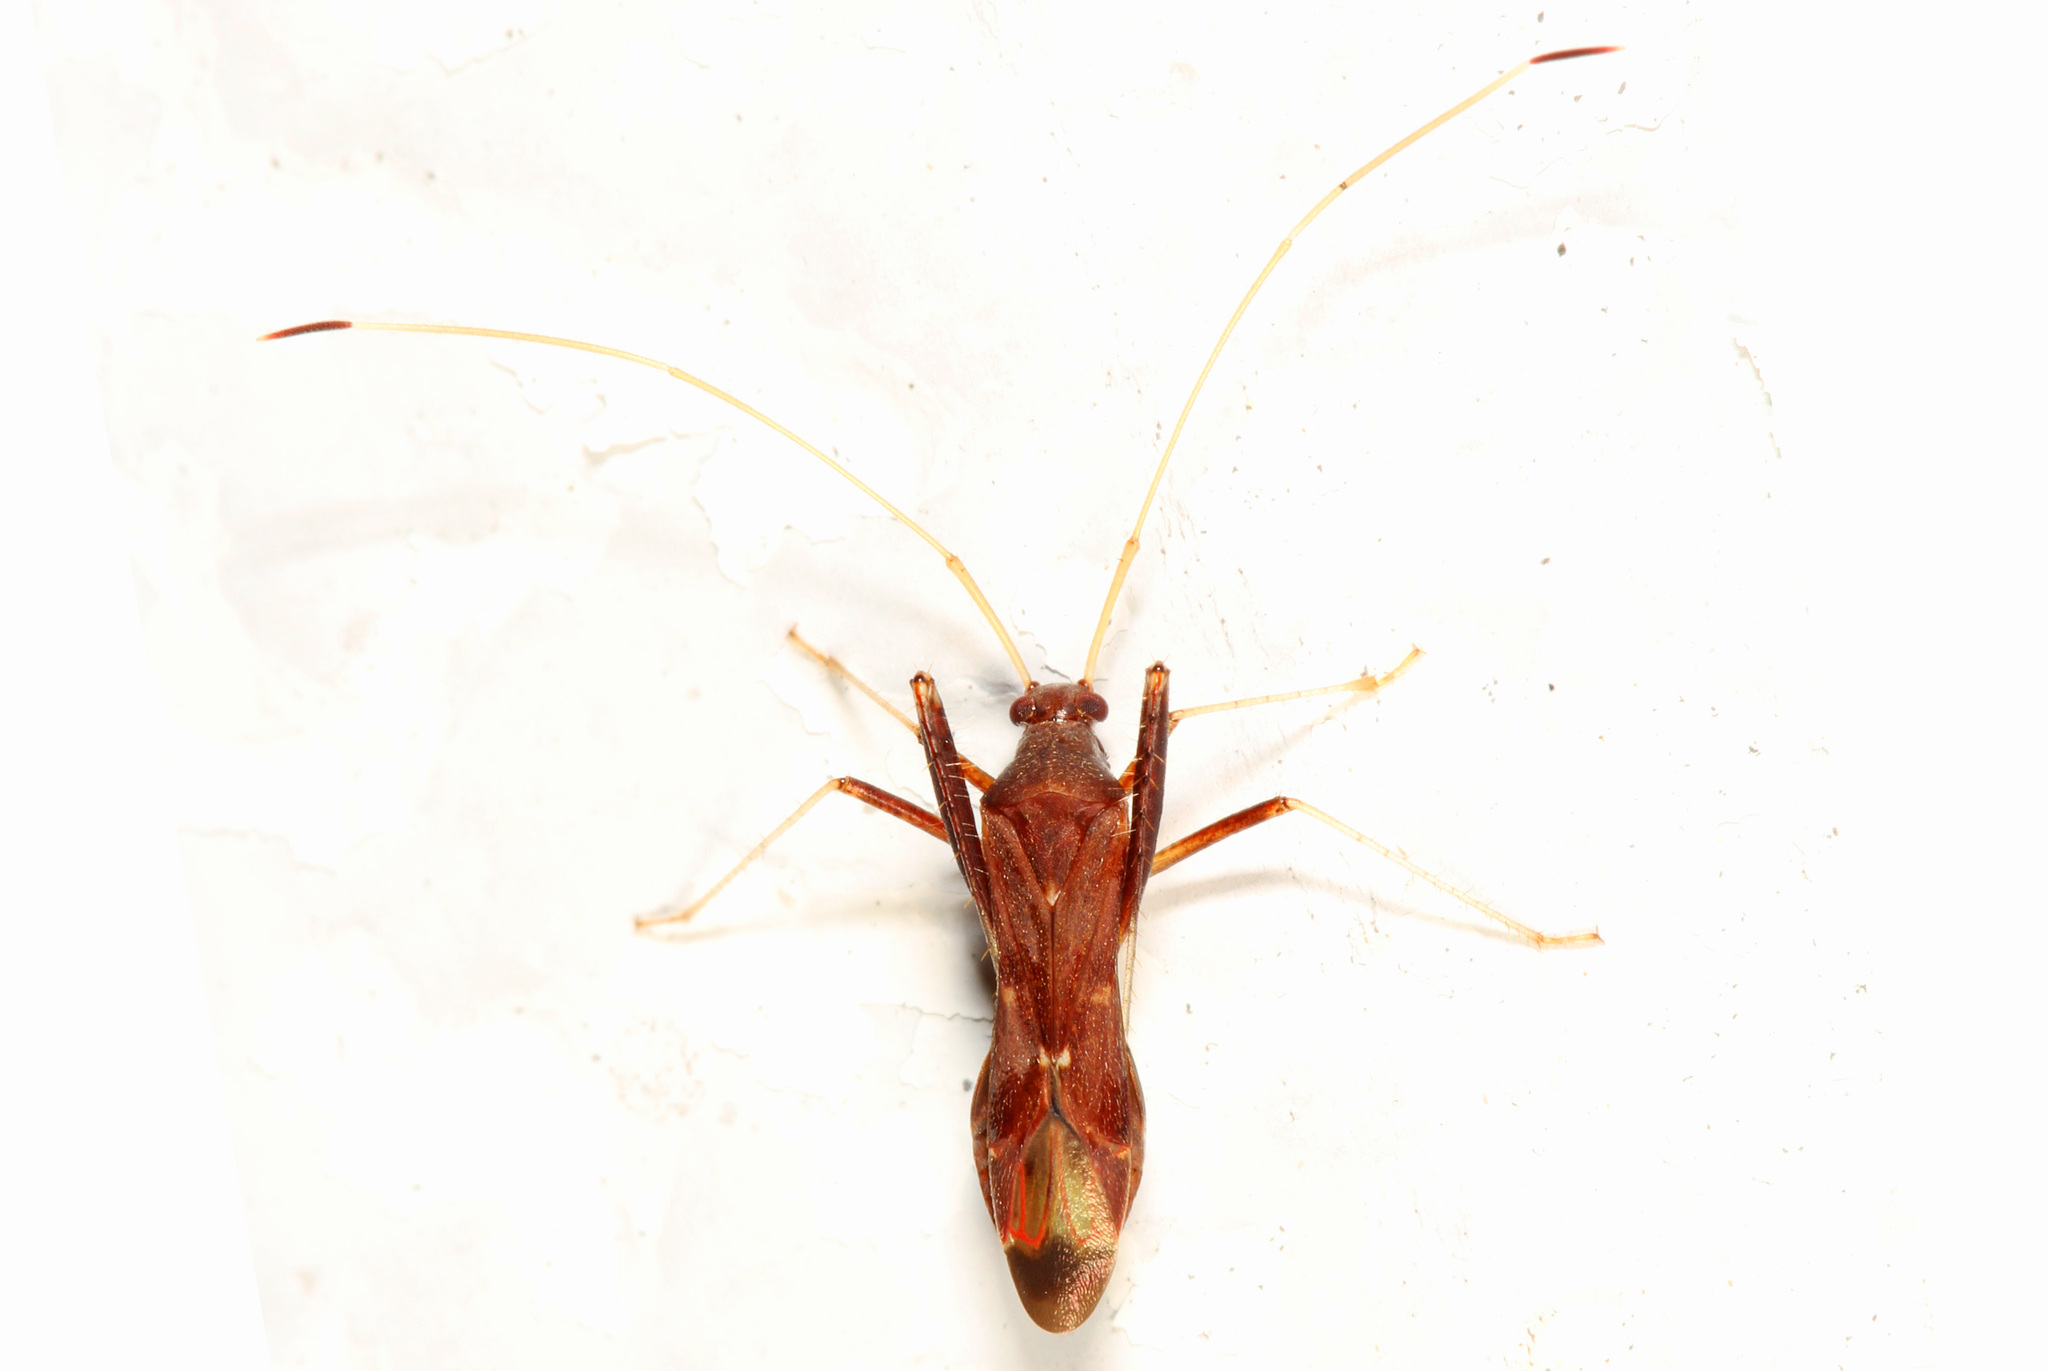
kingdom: Animalia
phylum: Arthropoda
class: Insecta
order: Hemiptera
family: Miridae
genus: Paraxenetus
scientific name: Paraxenetus guttulatus
